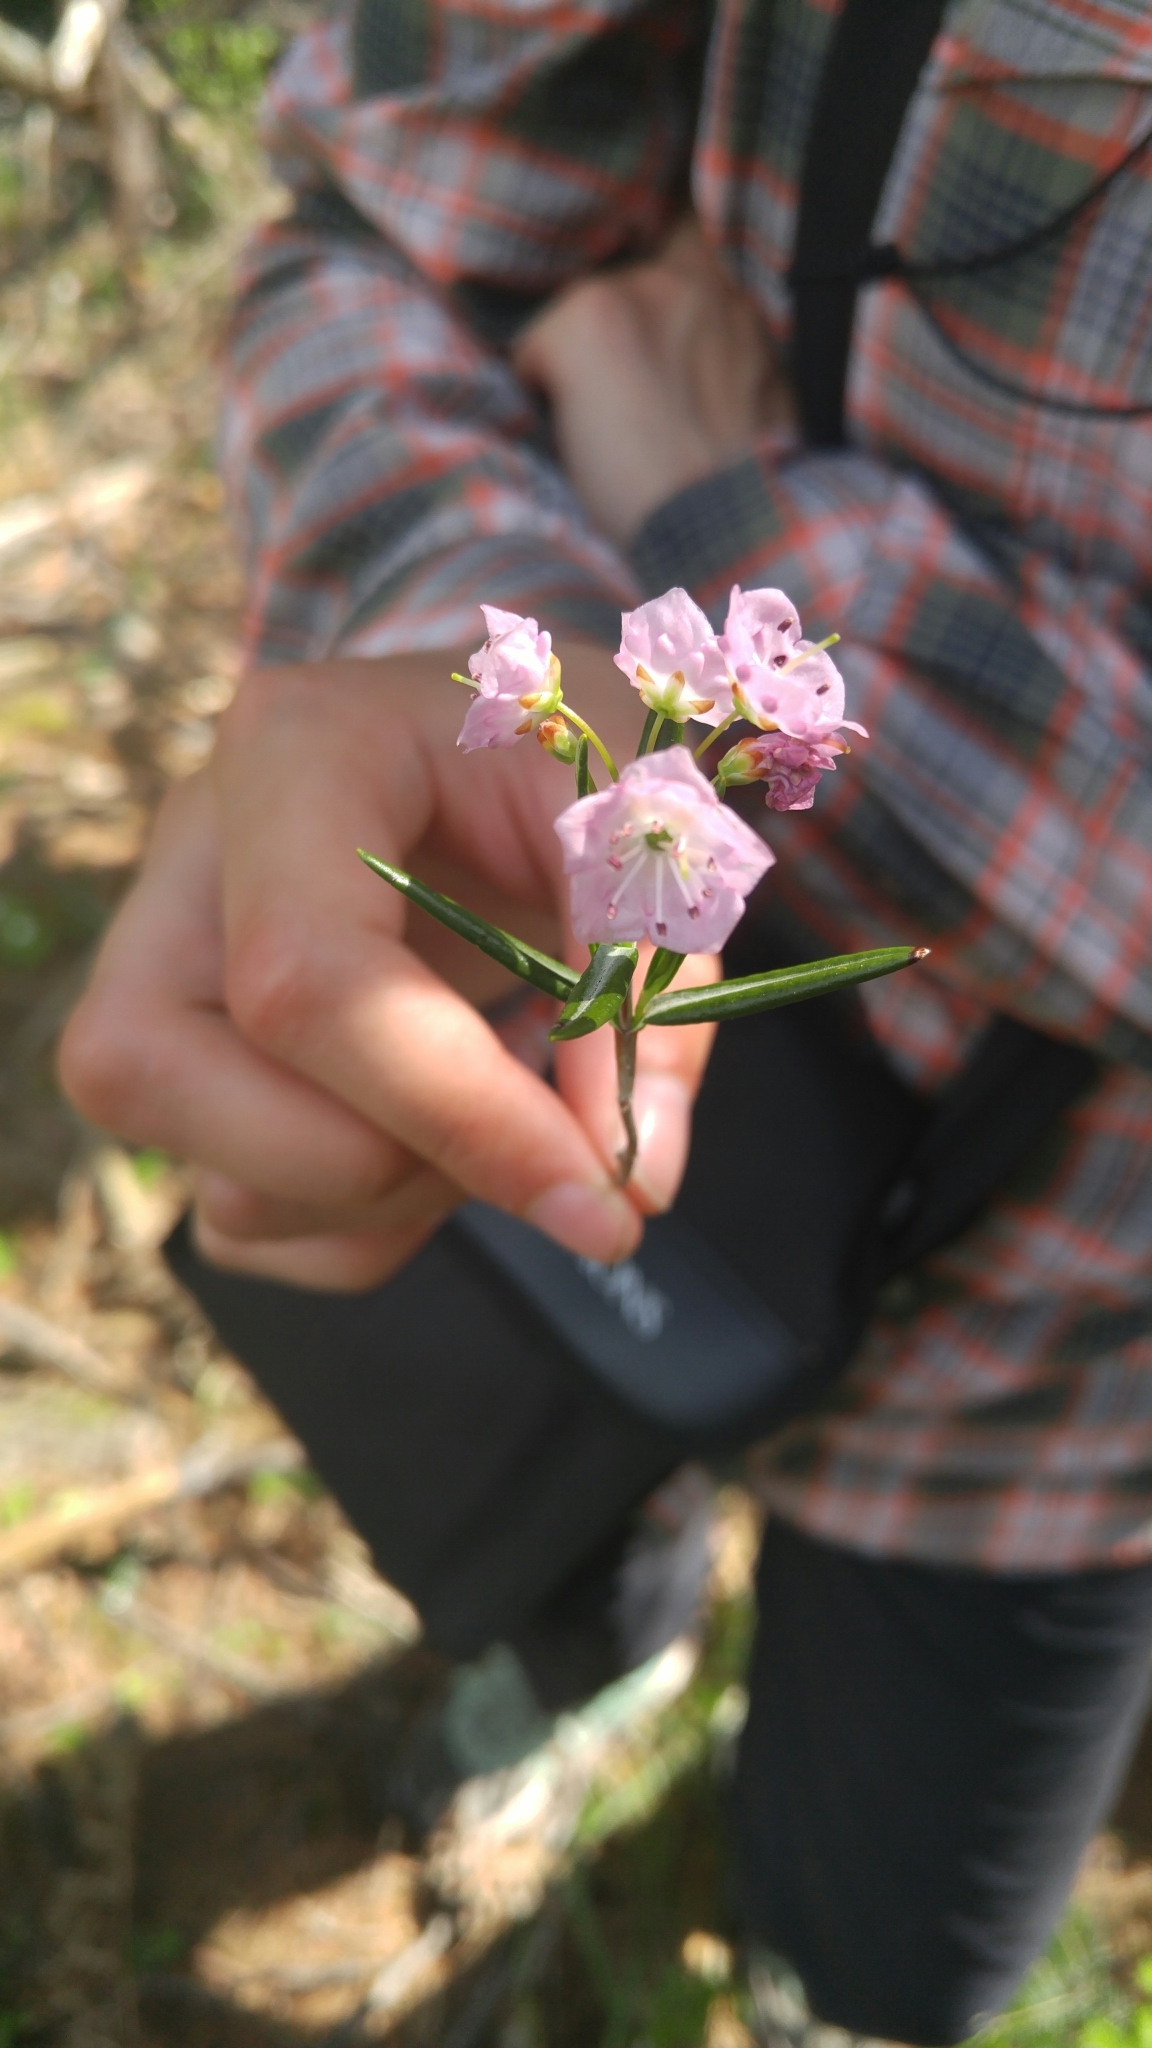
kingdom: Plantae
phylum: Tracheophyta
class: Magnoliopsida
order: Ericales
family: Ericaceae
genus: Kalmia
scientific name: Kalmia polifolia
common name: Bog-laurel
